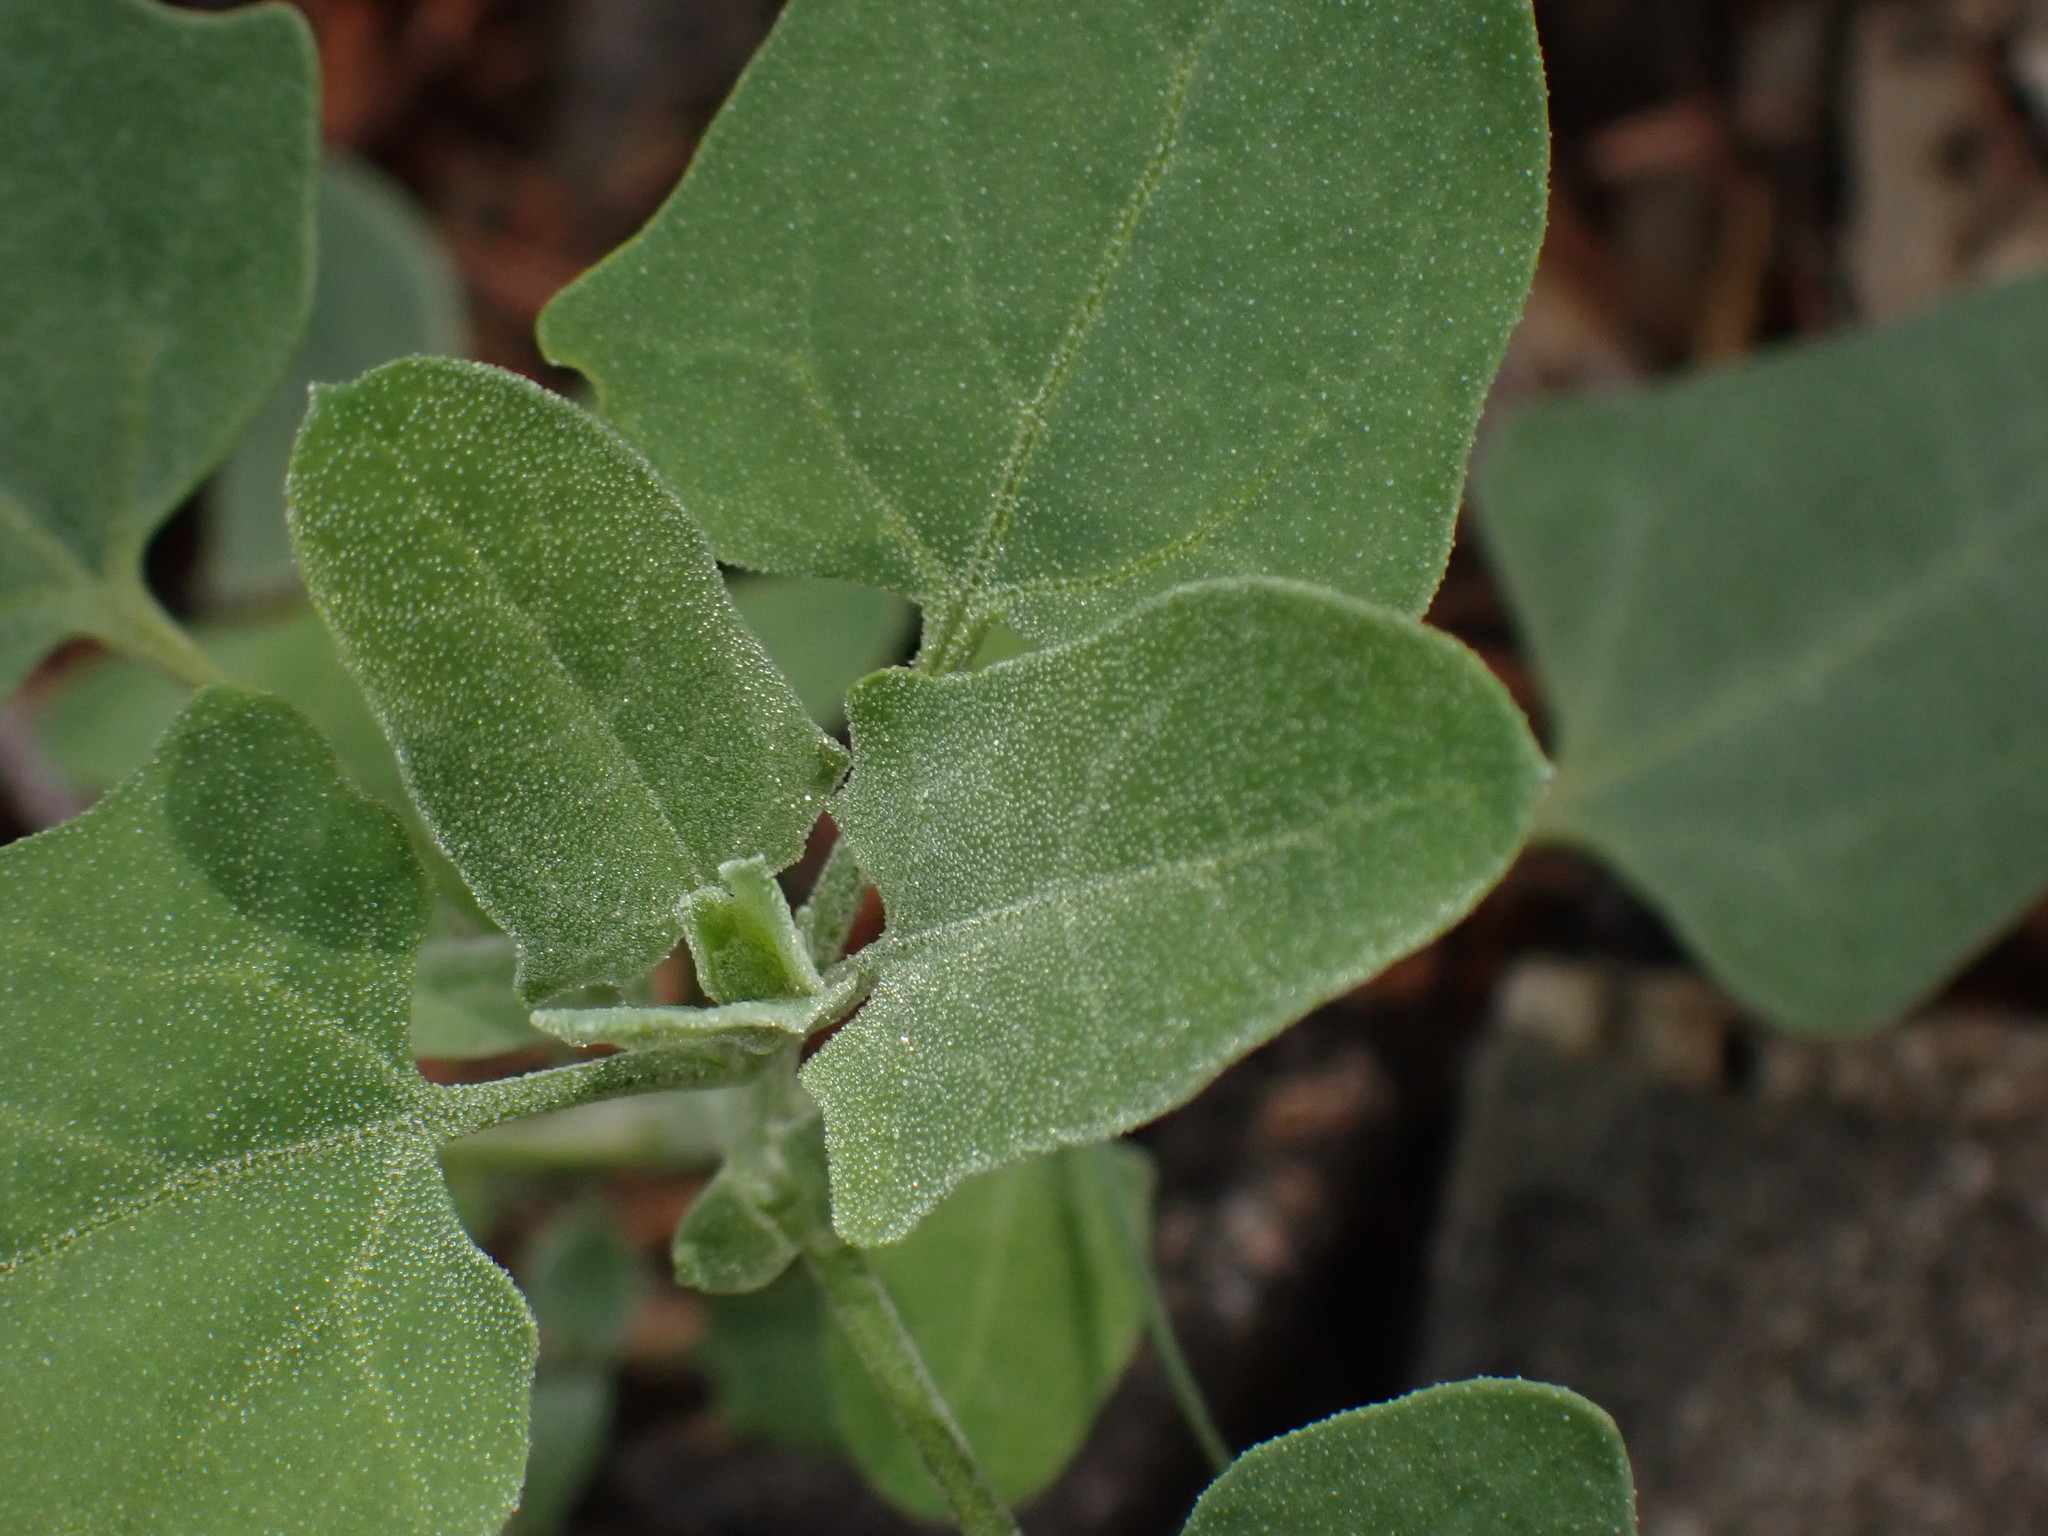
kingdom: Plantae
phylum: Tracheophyta
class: Magnoliopsida
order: Caryophyllales
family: Amaranthaceae
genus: Chenopodium
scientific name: Chenopodium album
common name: Fat-hen
